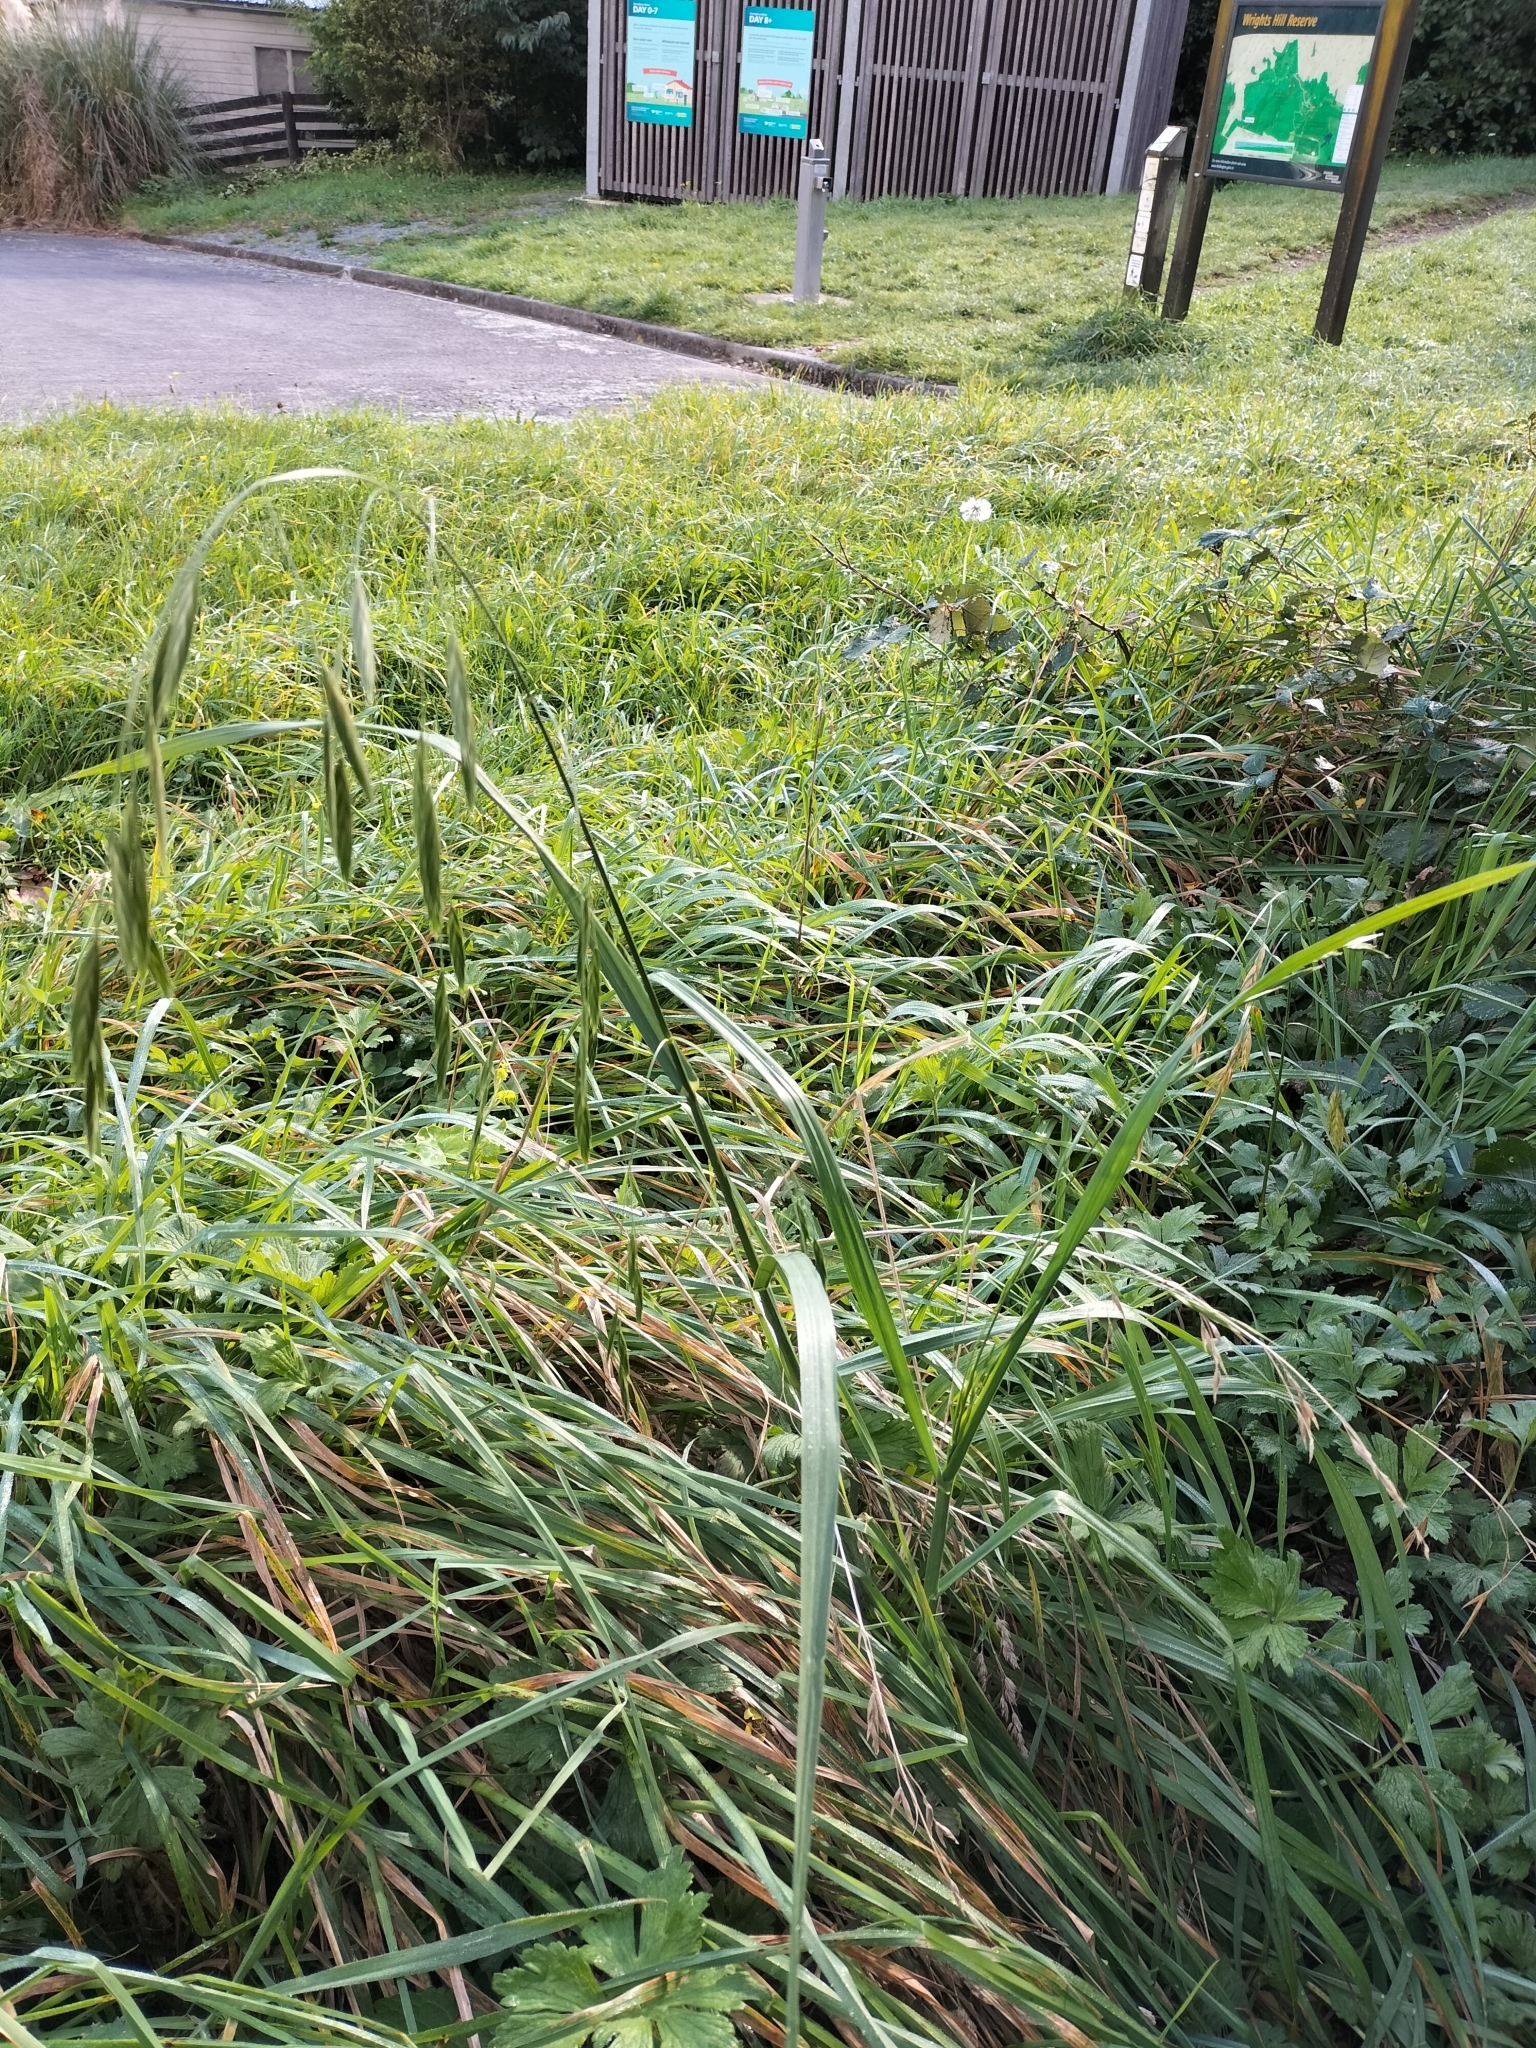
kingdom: Plantae
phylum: Tracheophyta
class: Liliopsida
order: Poales
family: Poaceae
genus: Bromus
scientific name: Bromus catharticus
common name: Rescuegrass
